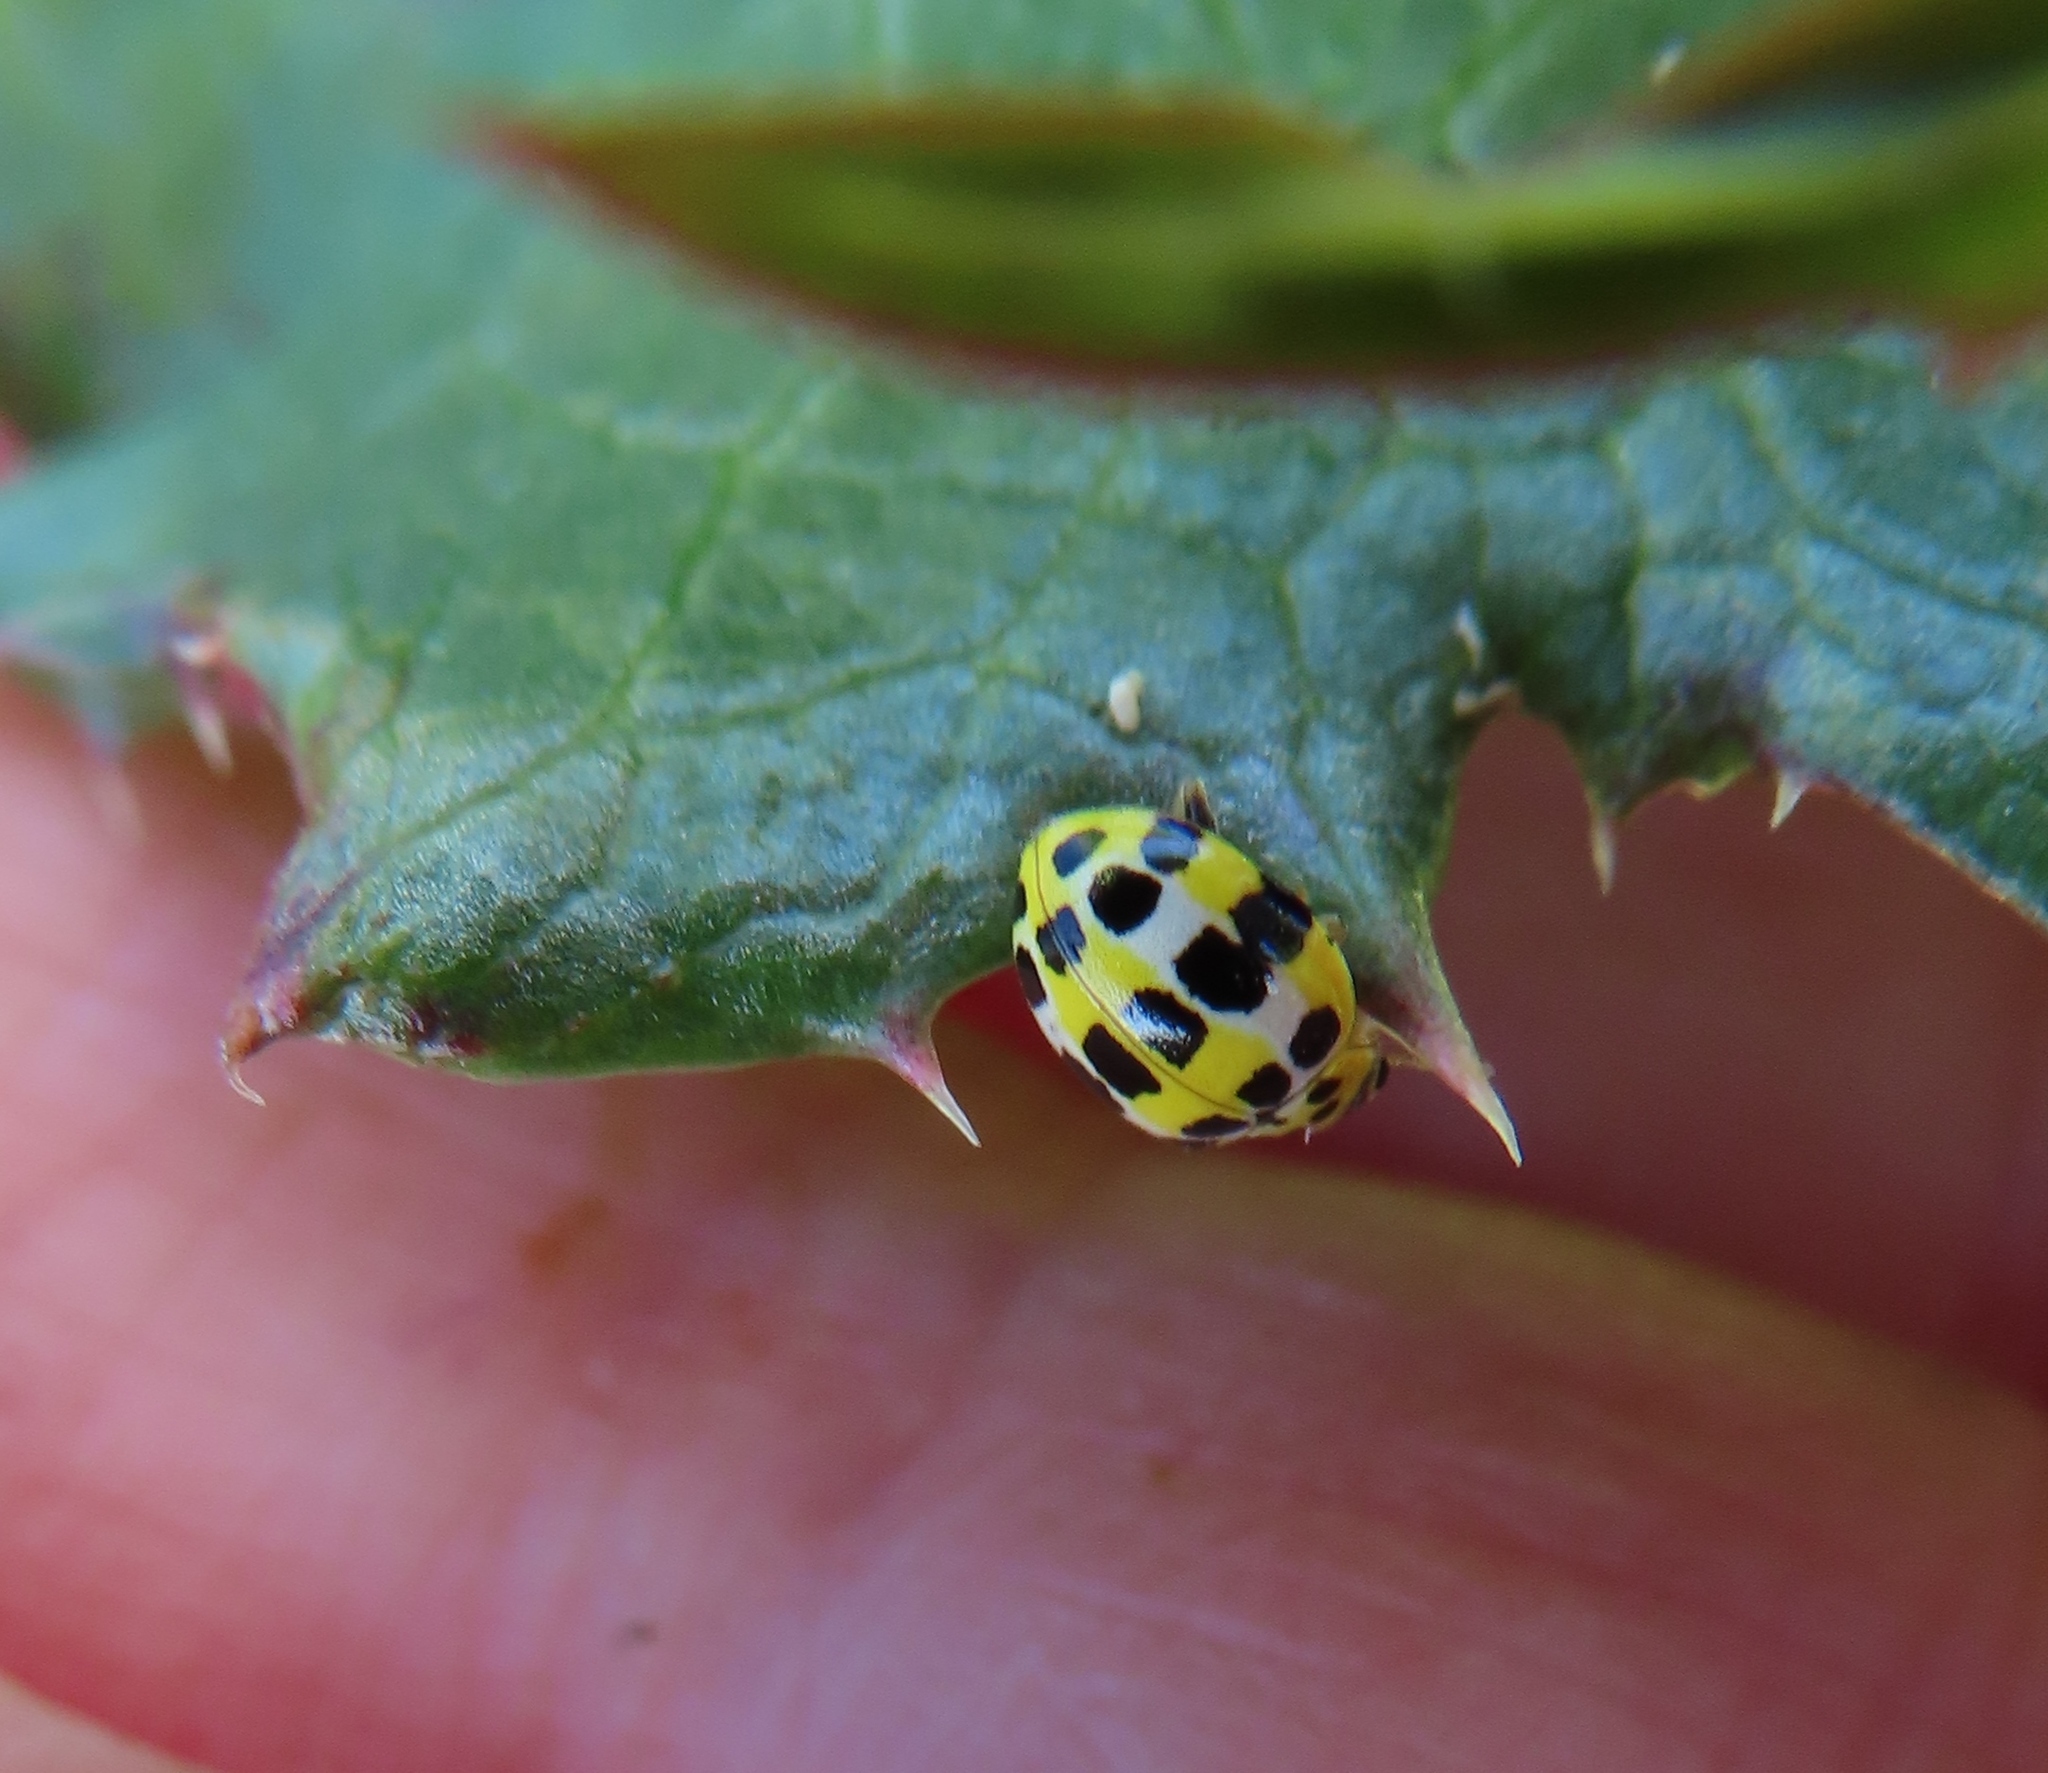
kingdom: Animalia
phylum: Arthropoda
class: Insecta
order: Coleoptera
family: Coccinellidae
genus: Psyllobora
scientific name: Psyllobora variegata
